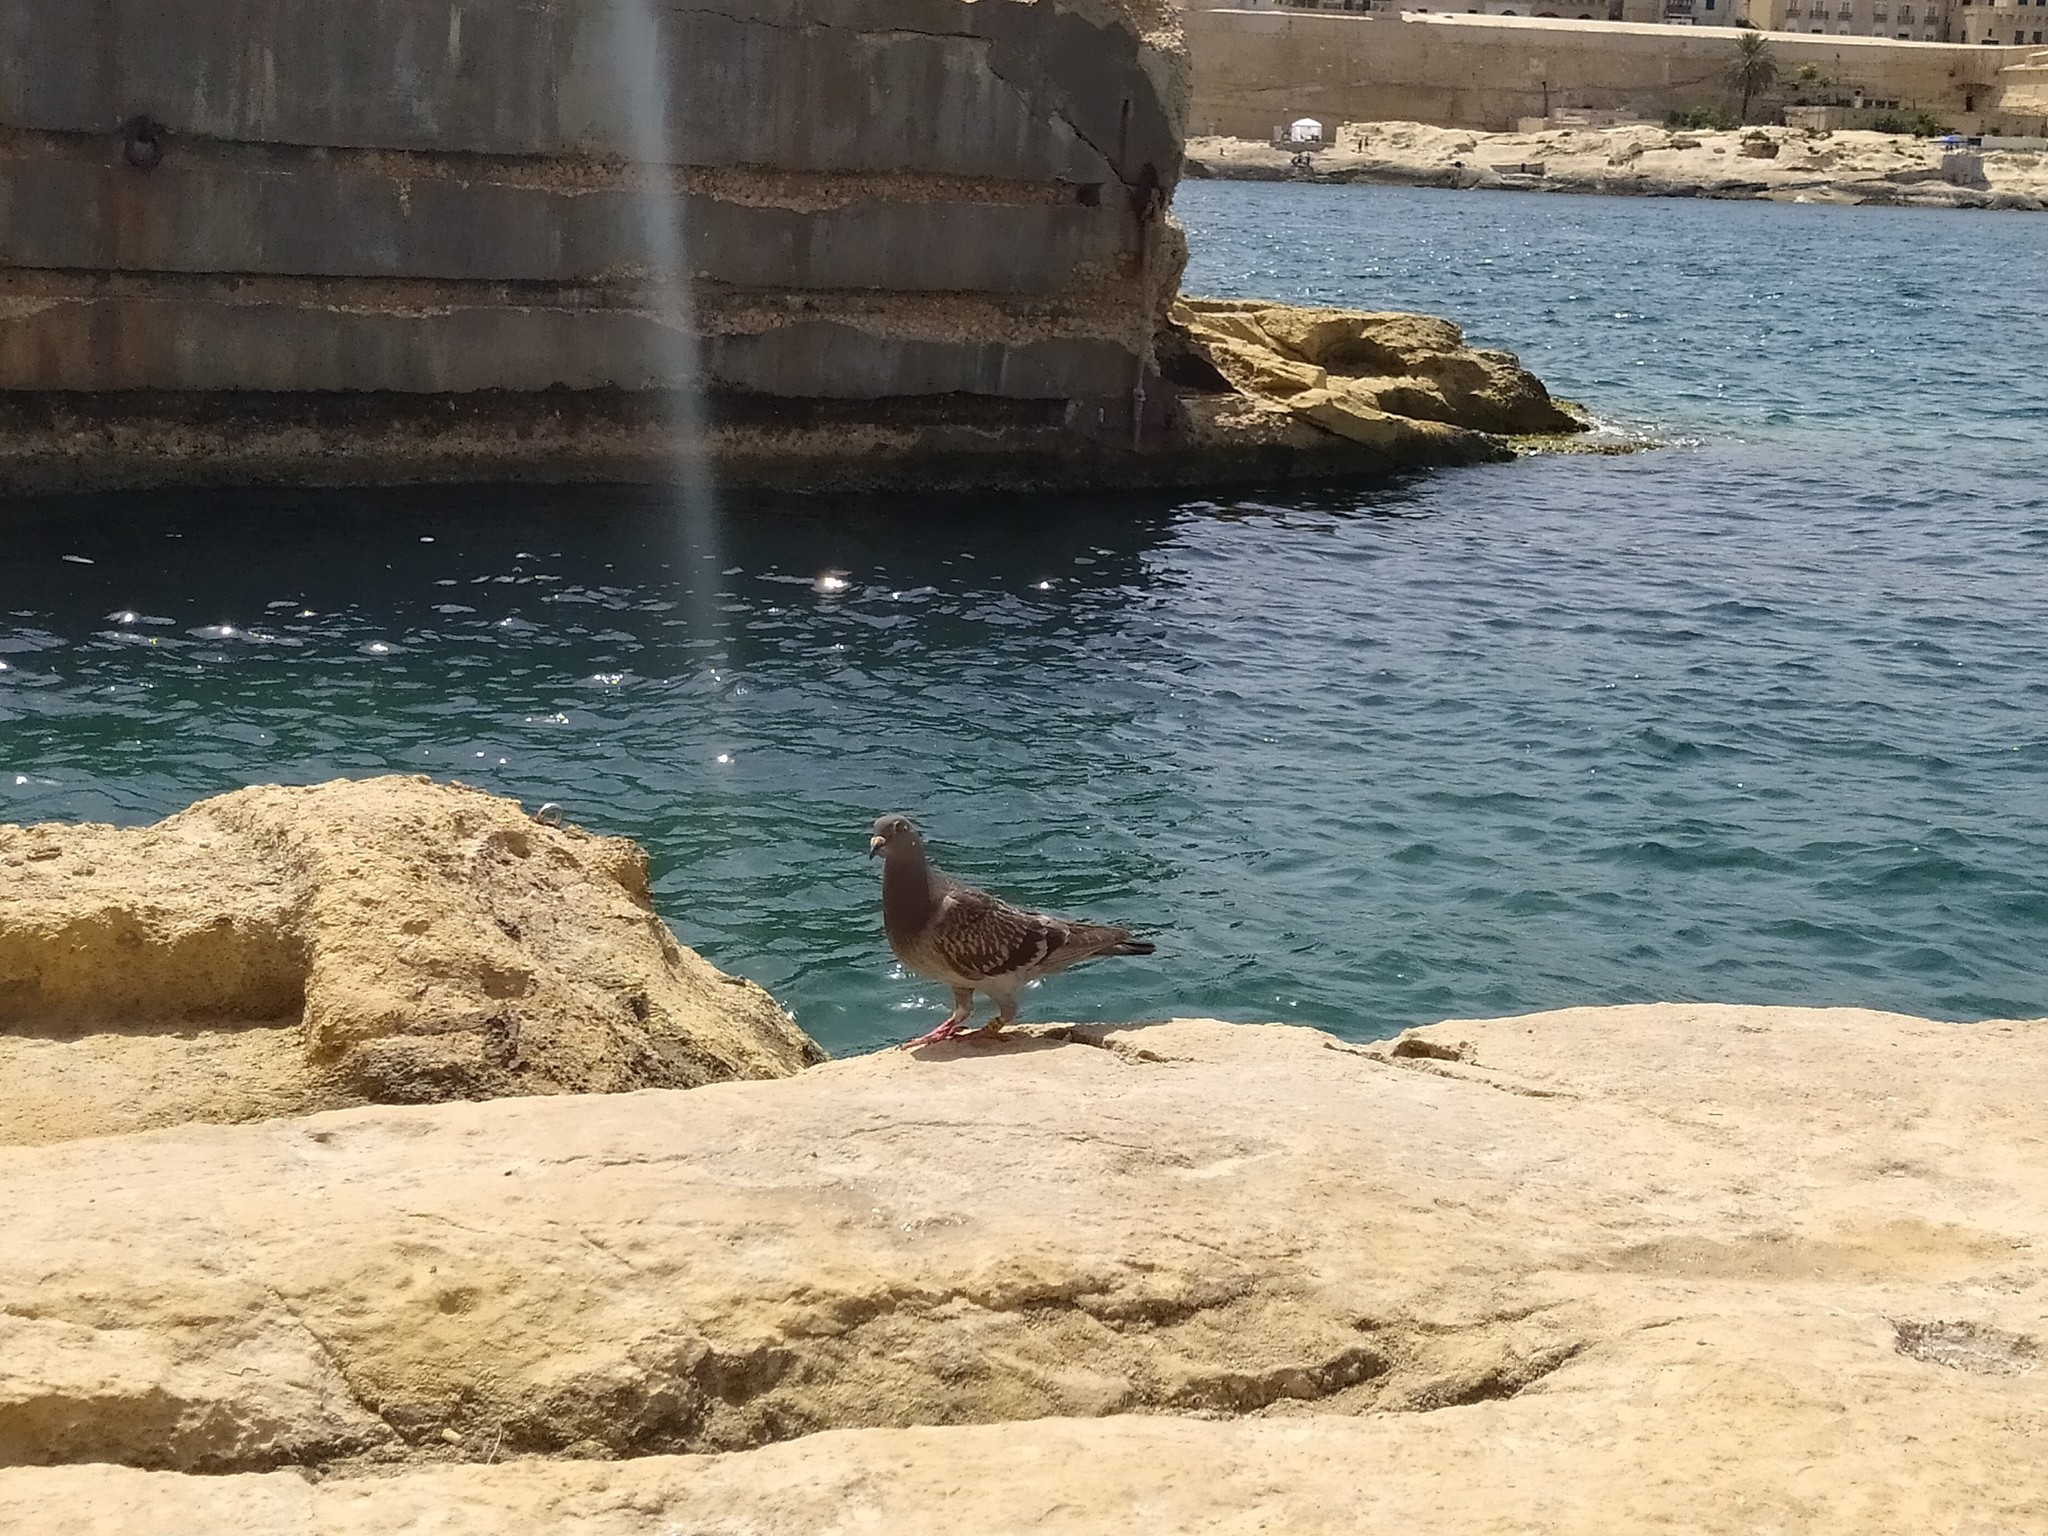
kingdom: Animalia
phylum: Chordata
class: Aves
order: Columbiformes
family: Columbidae
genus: Columba
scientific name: Columba livia
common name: Rock pigeon
